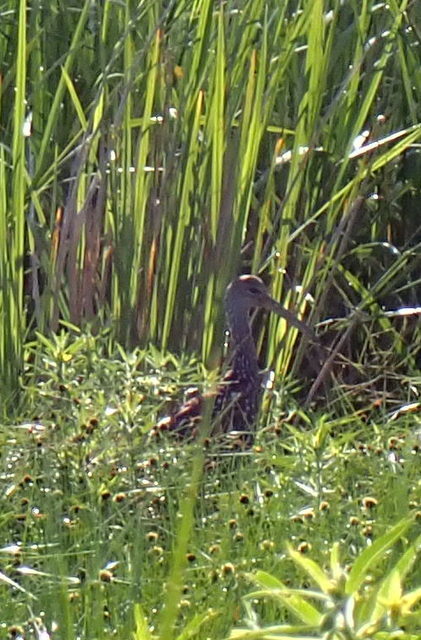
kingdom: Animalia
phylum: Chordata
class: Aves
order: Gruiformes
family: Aramidae
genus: Aramus
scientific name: Aramus guarauna
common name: Limpkin
